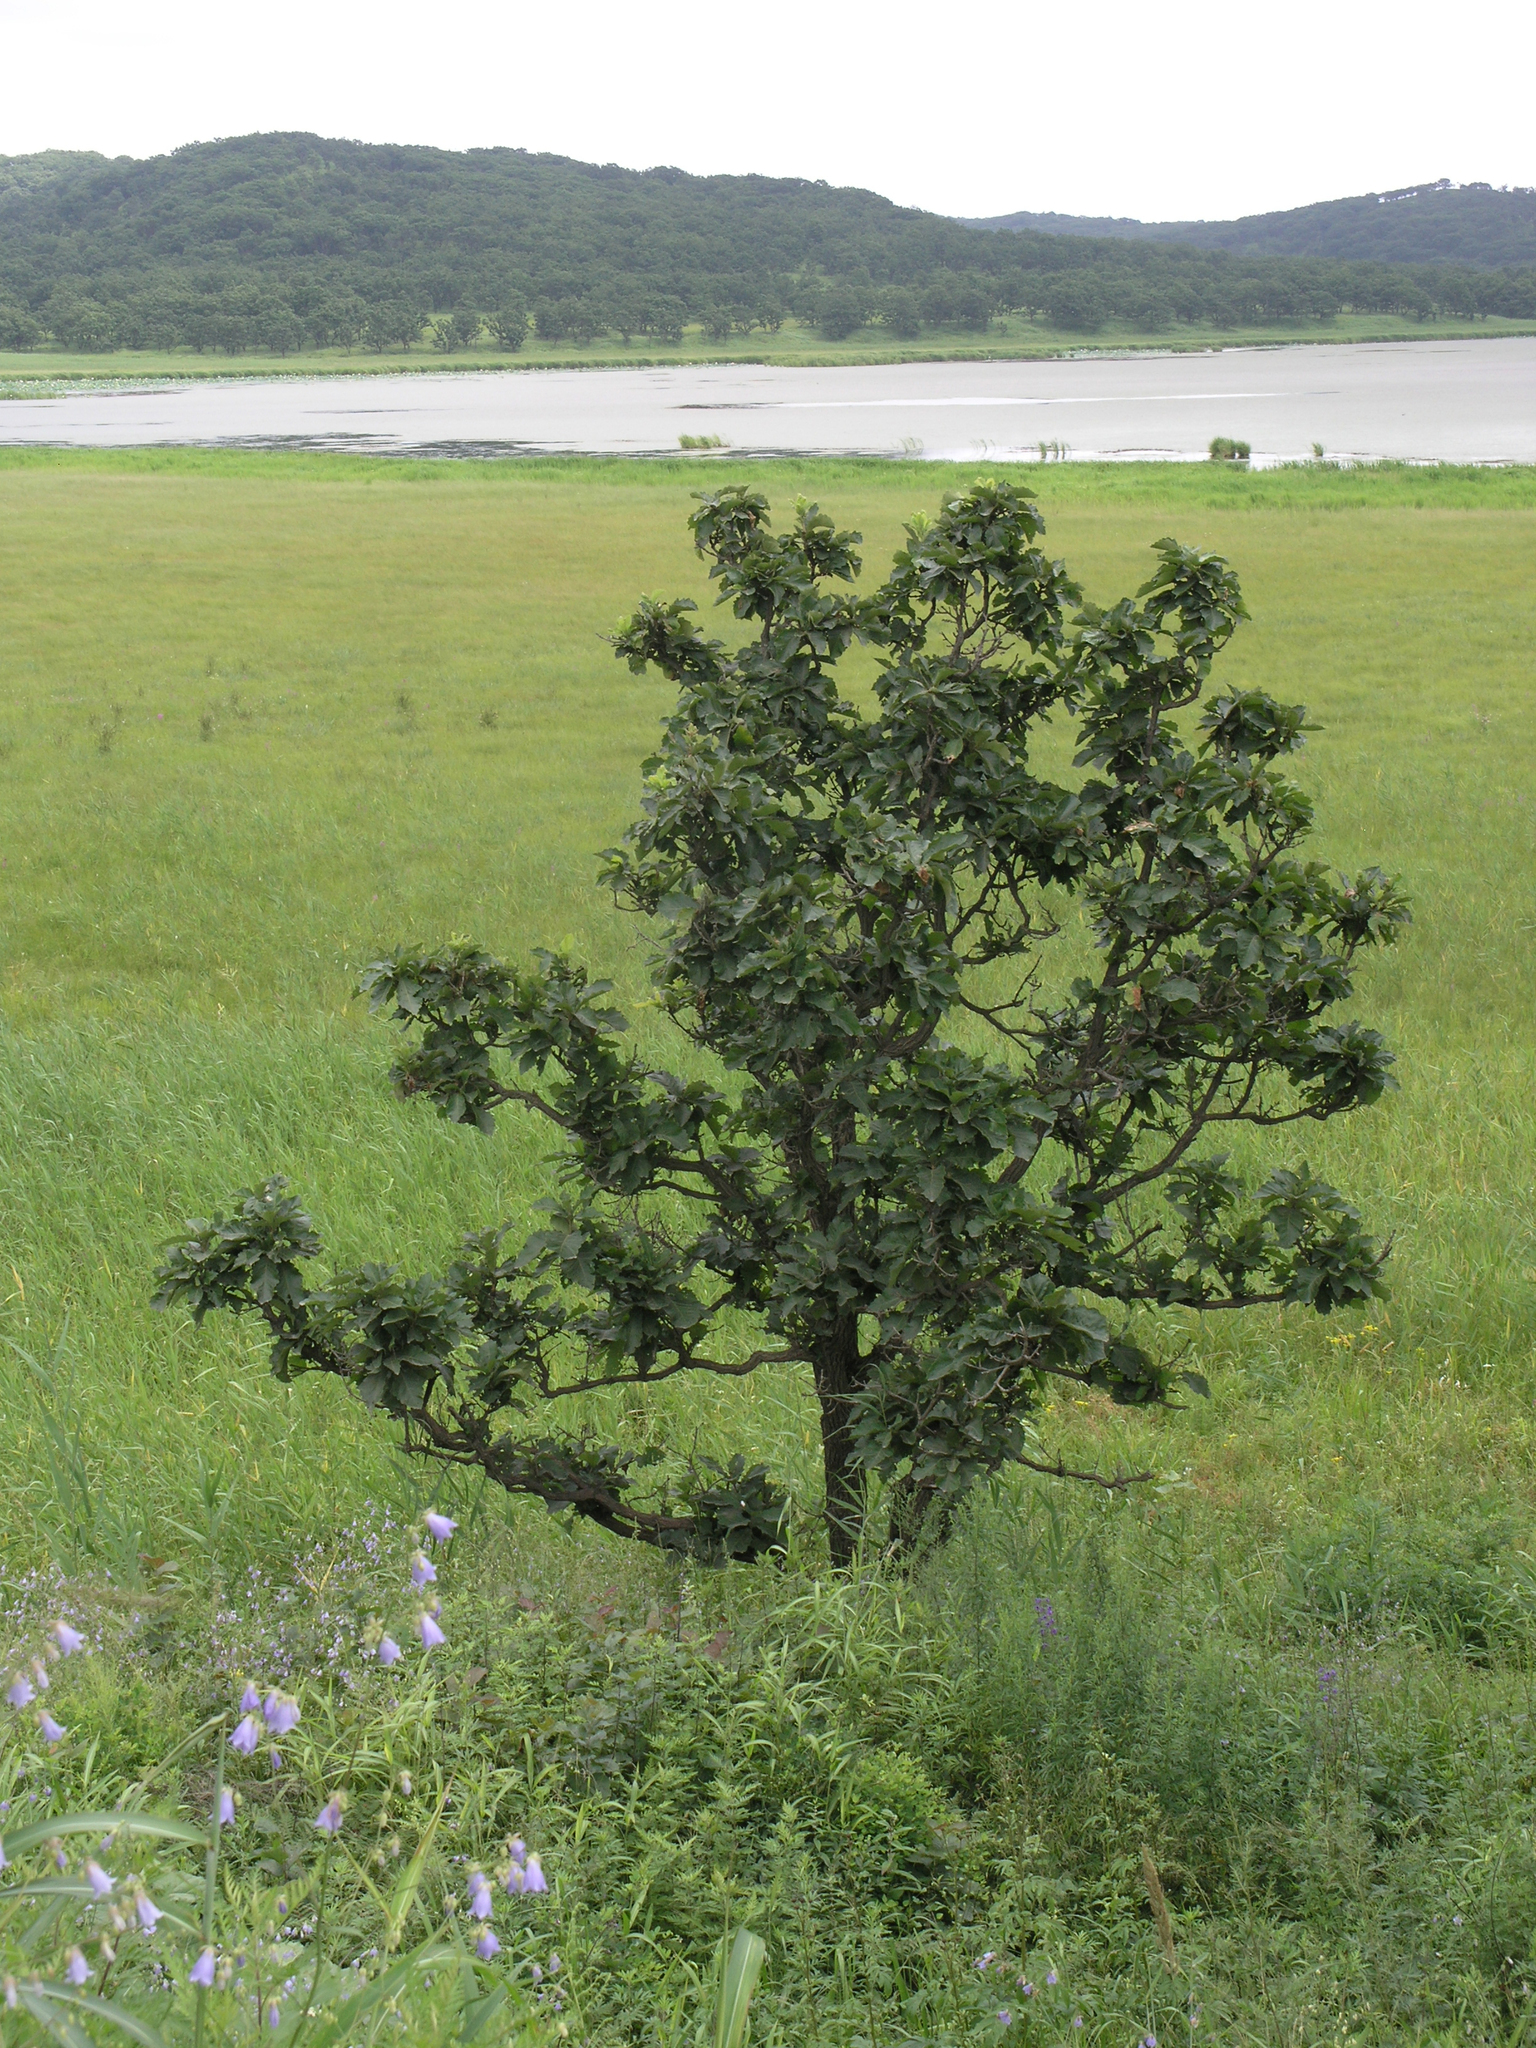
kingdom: Plantae
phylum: Tracheophyta
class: Magnoliopsida
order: Fagales
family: Fagaceae
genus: Quercus
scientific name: Quercus dentata
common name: Daimyo oak
